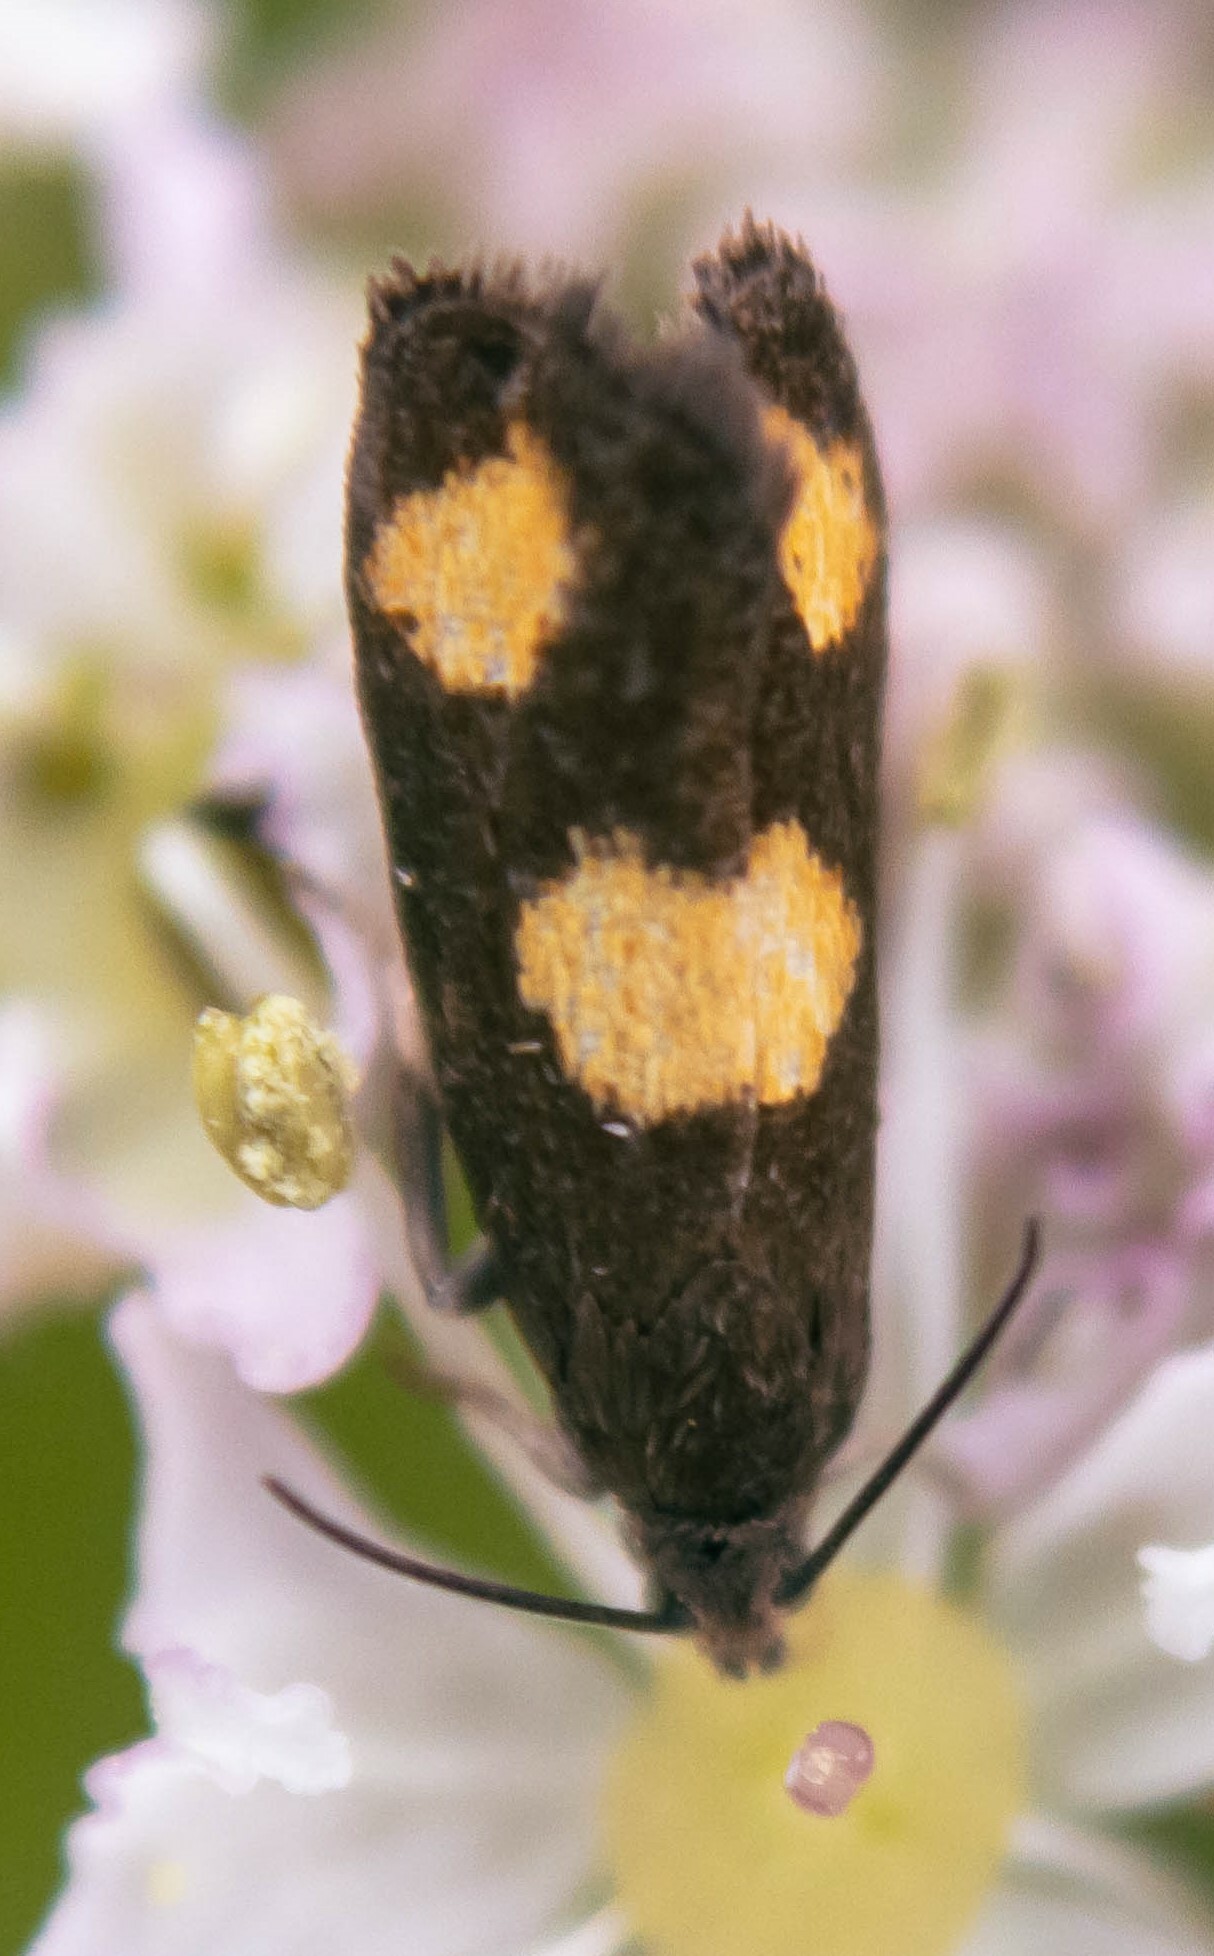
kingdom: Animalia
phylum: Arthropoda
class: Insecta
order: Lepidoptera
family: Tortricidae
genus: Pammene
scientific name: Pammene aurana
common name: Orange-spot piercer
